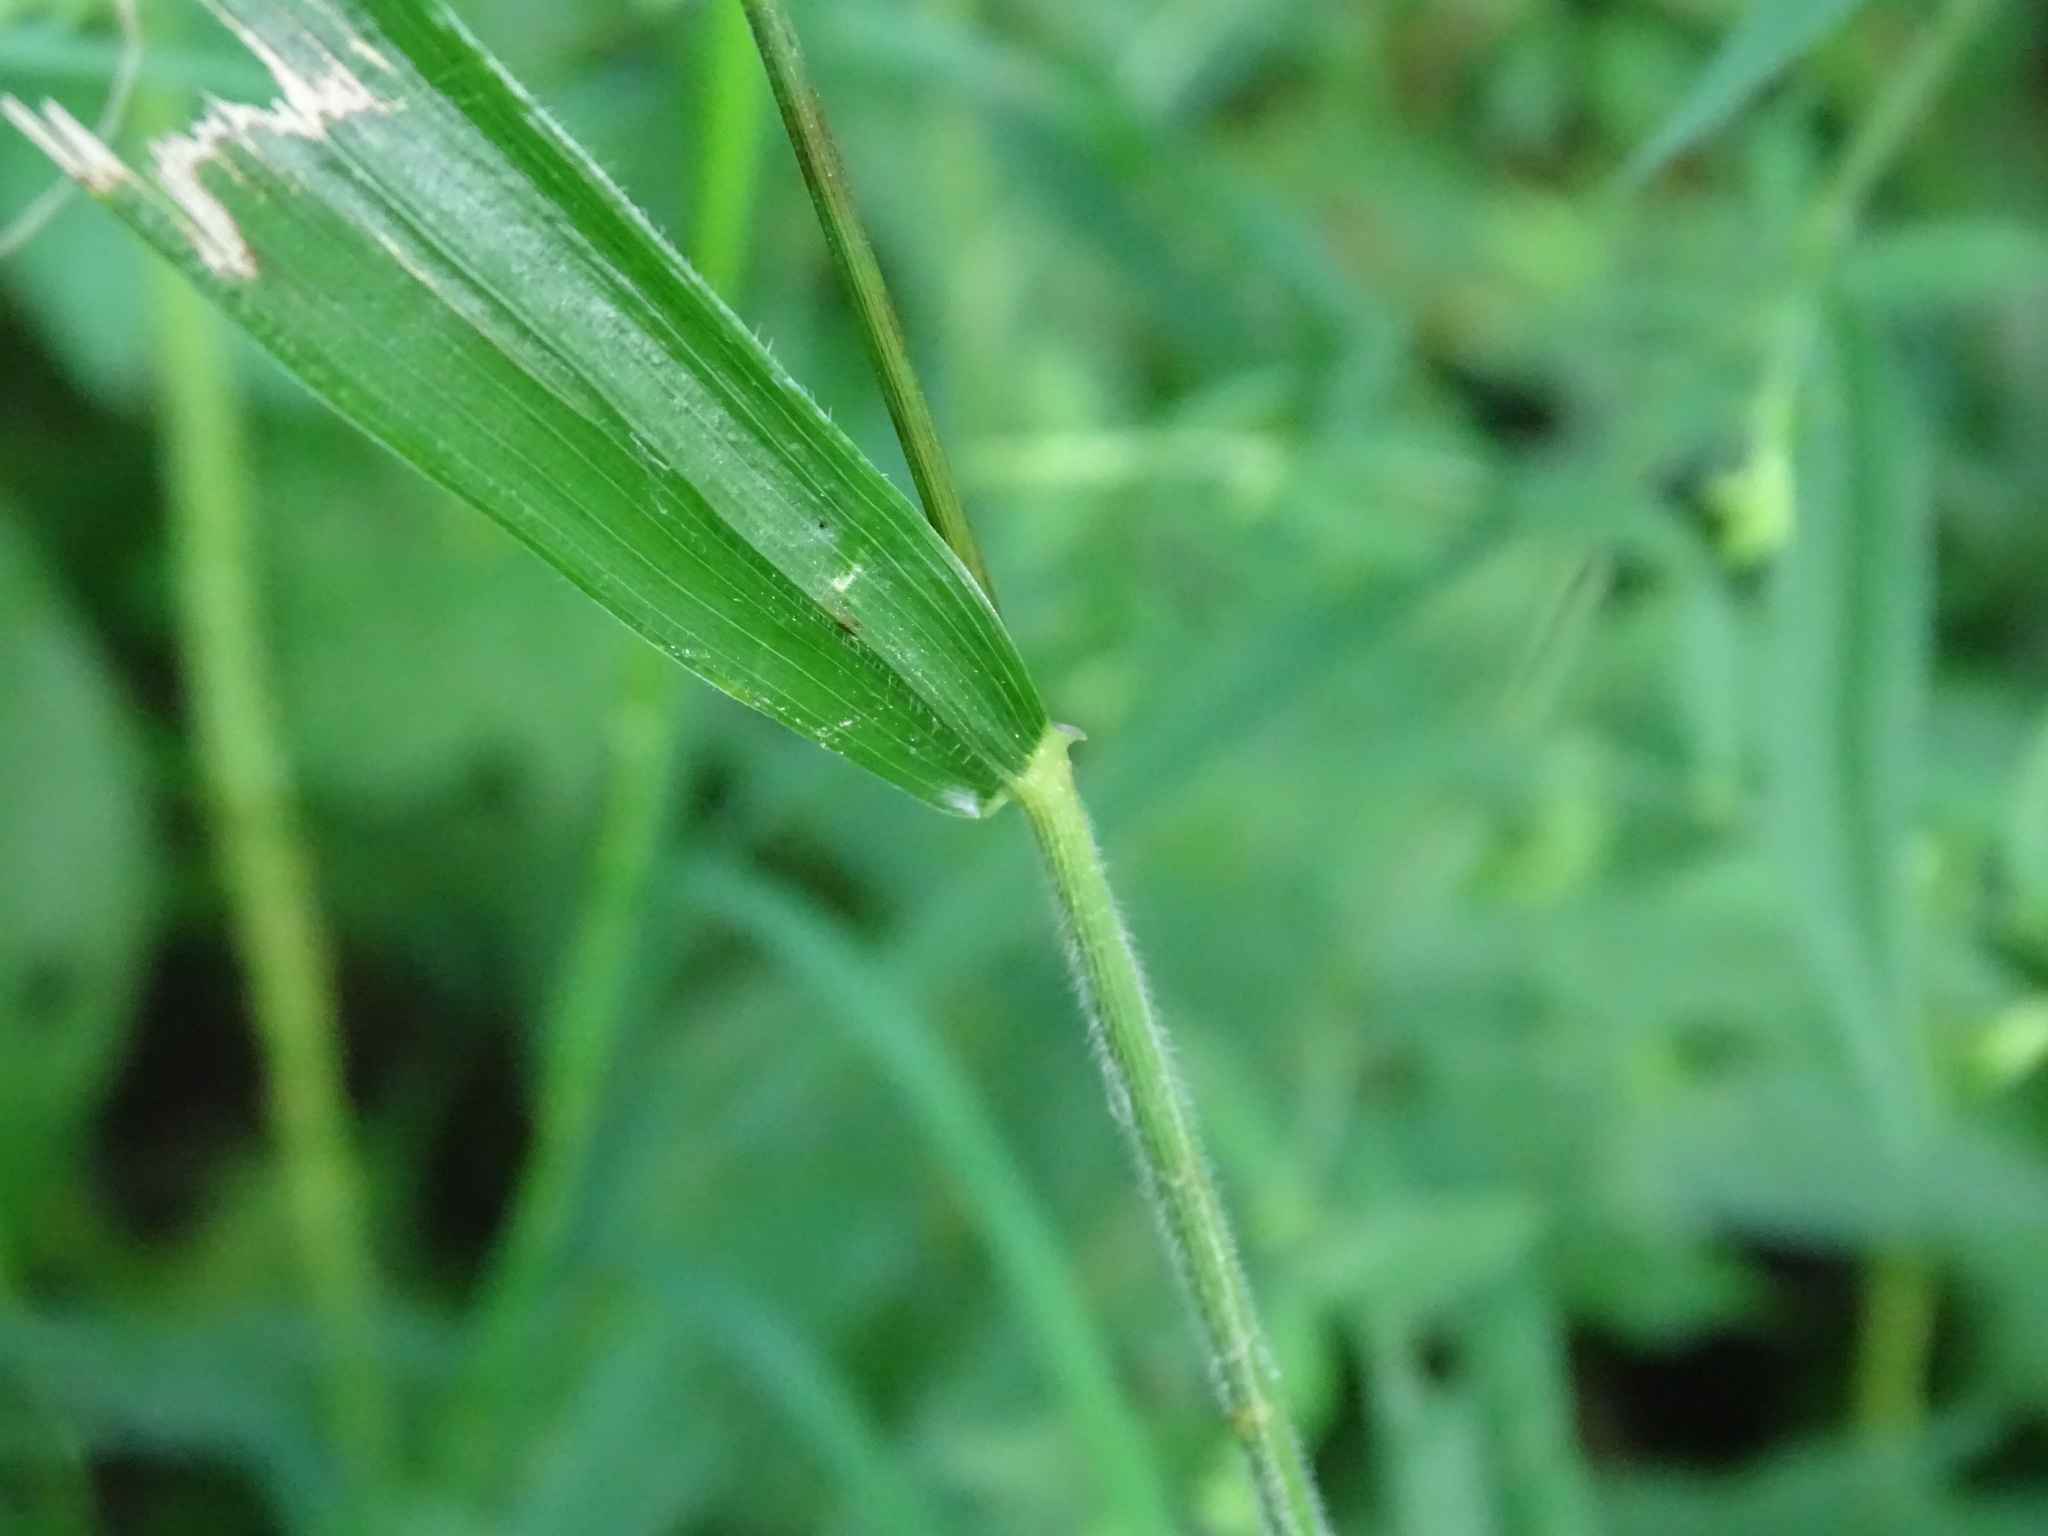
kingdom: Plantae
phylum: Tracheophyta
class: Liliopsida
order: Poales
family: Poaceae
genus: Elymus
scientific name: Elymus villosus
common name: Downy wild rye
